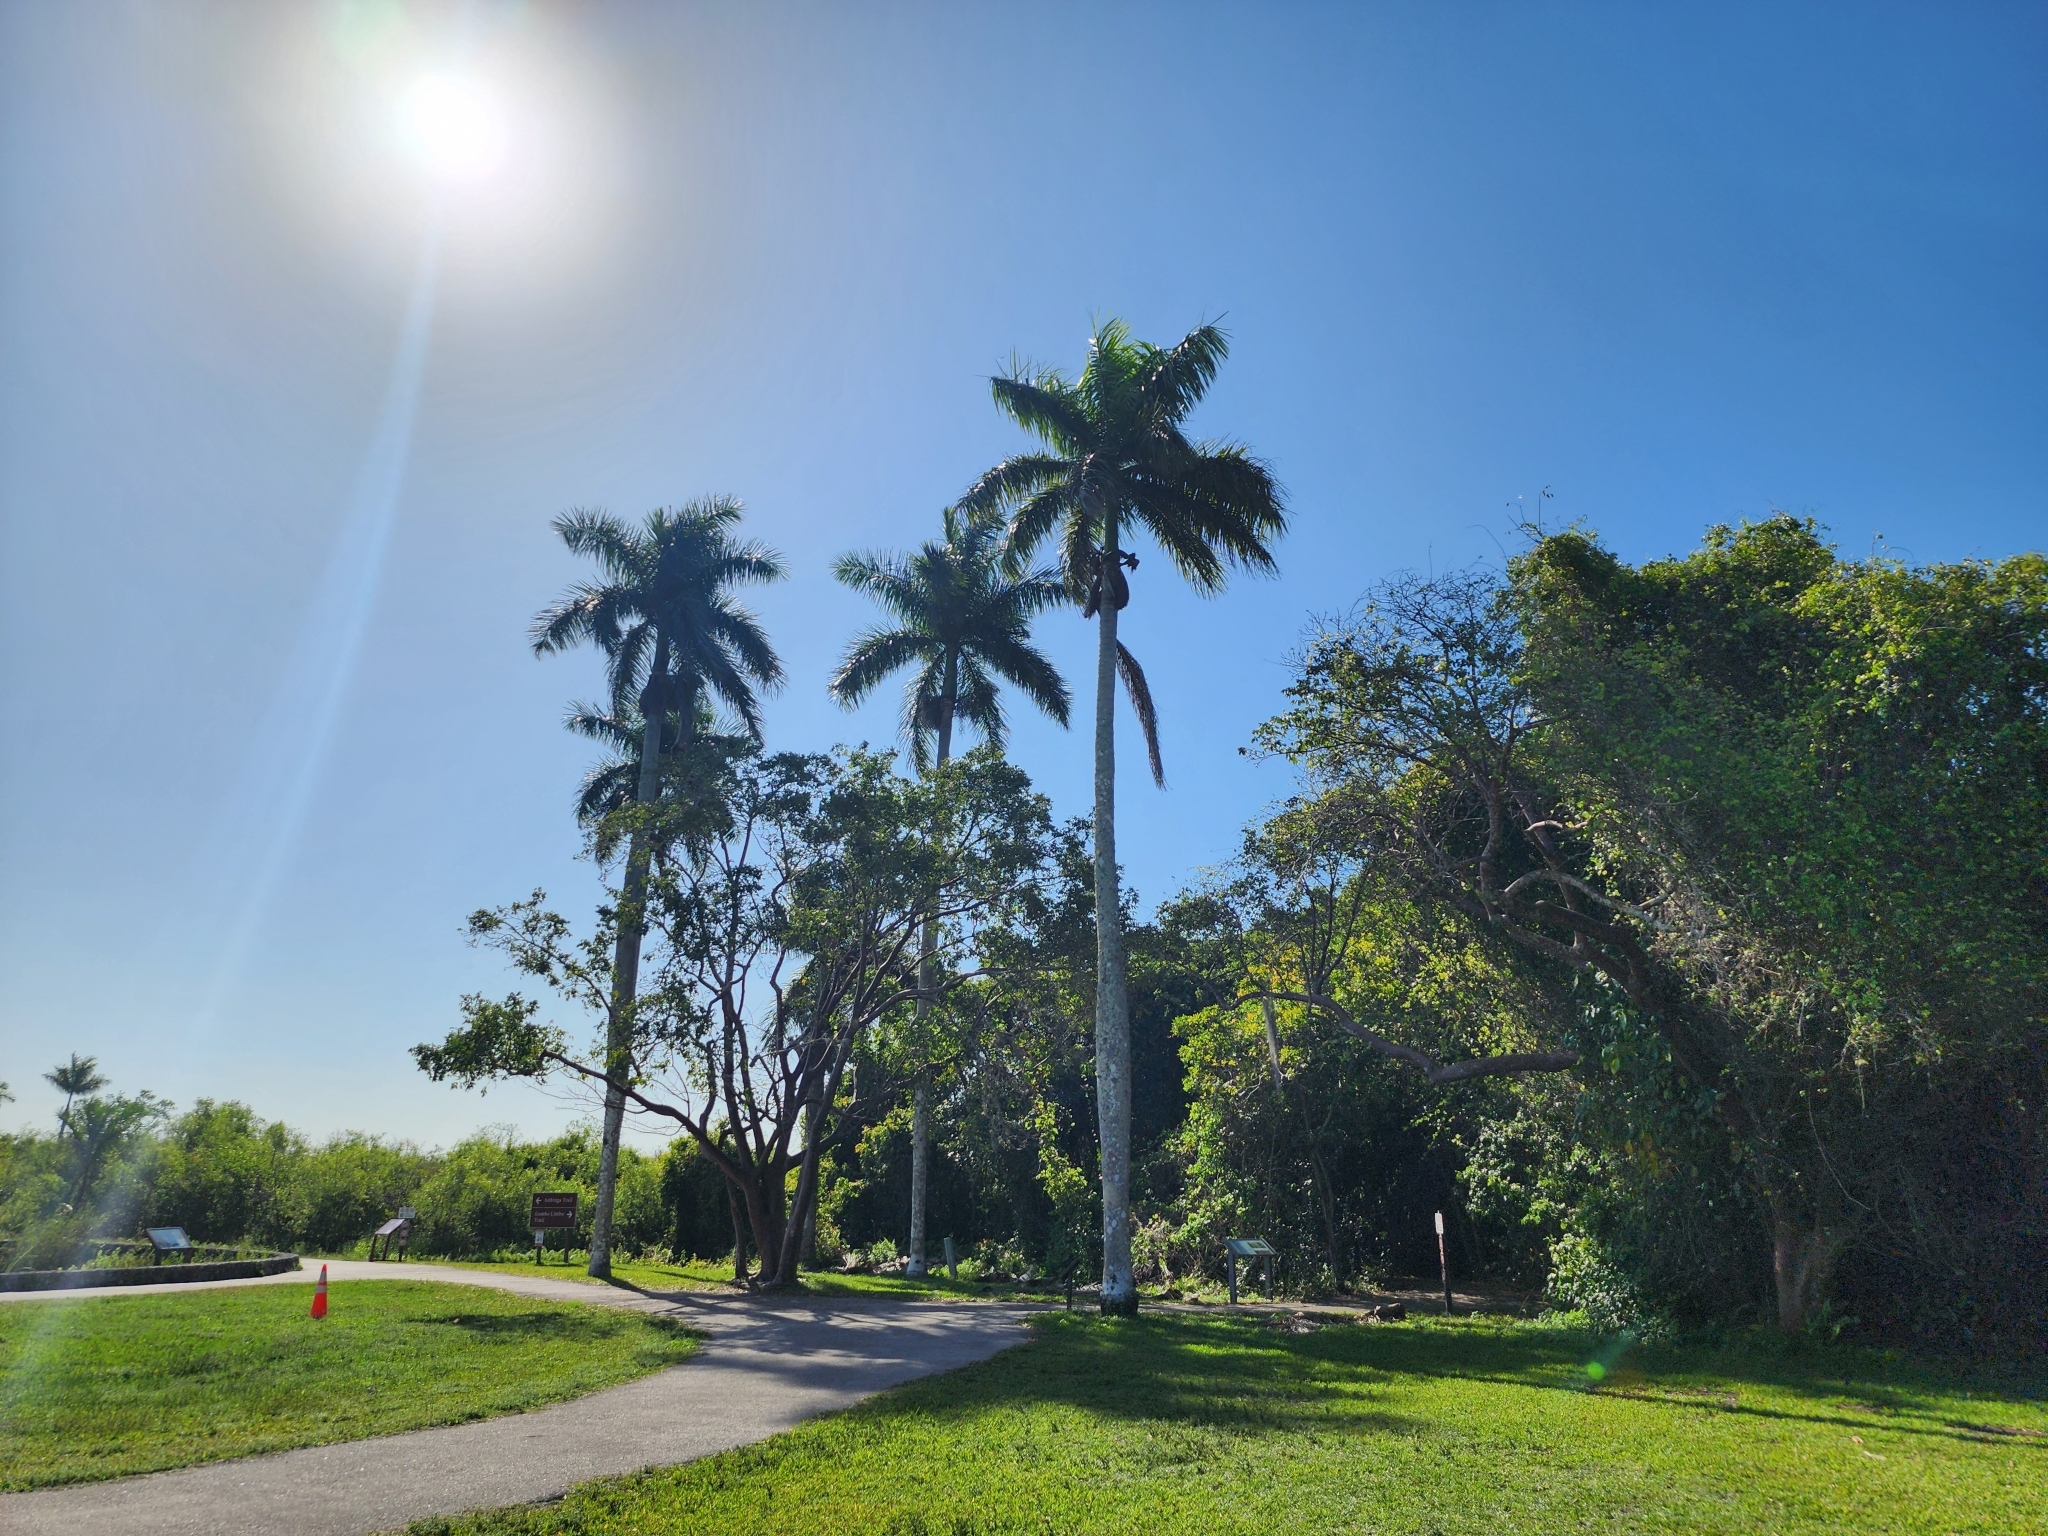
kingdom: Plantae
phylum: Tracheophyta
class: Liliopsida
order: Arecales
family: Arecaceae
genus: Roystonea
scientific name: Roystonea regia
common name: Florida royal palm
